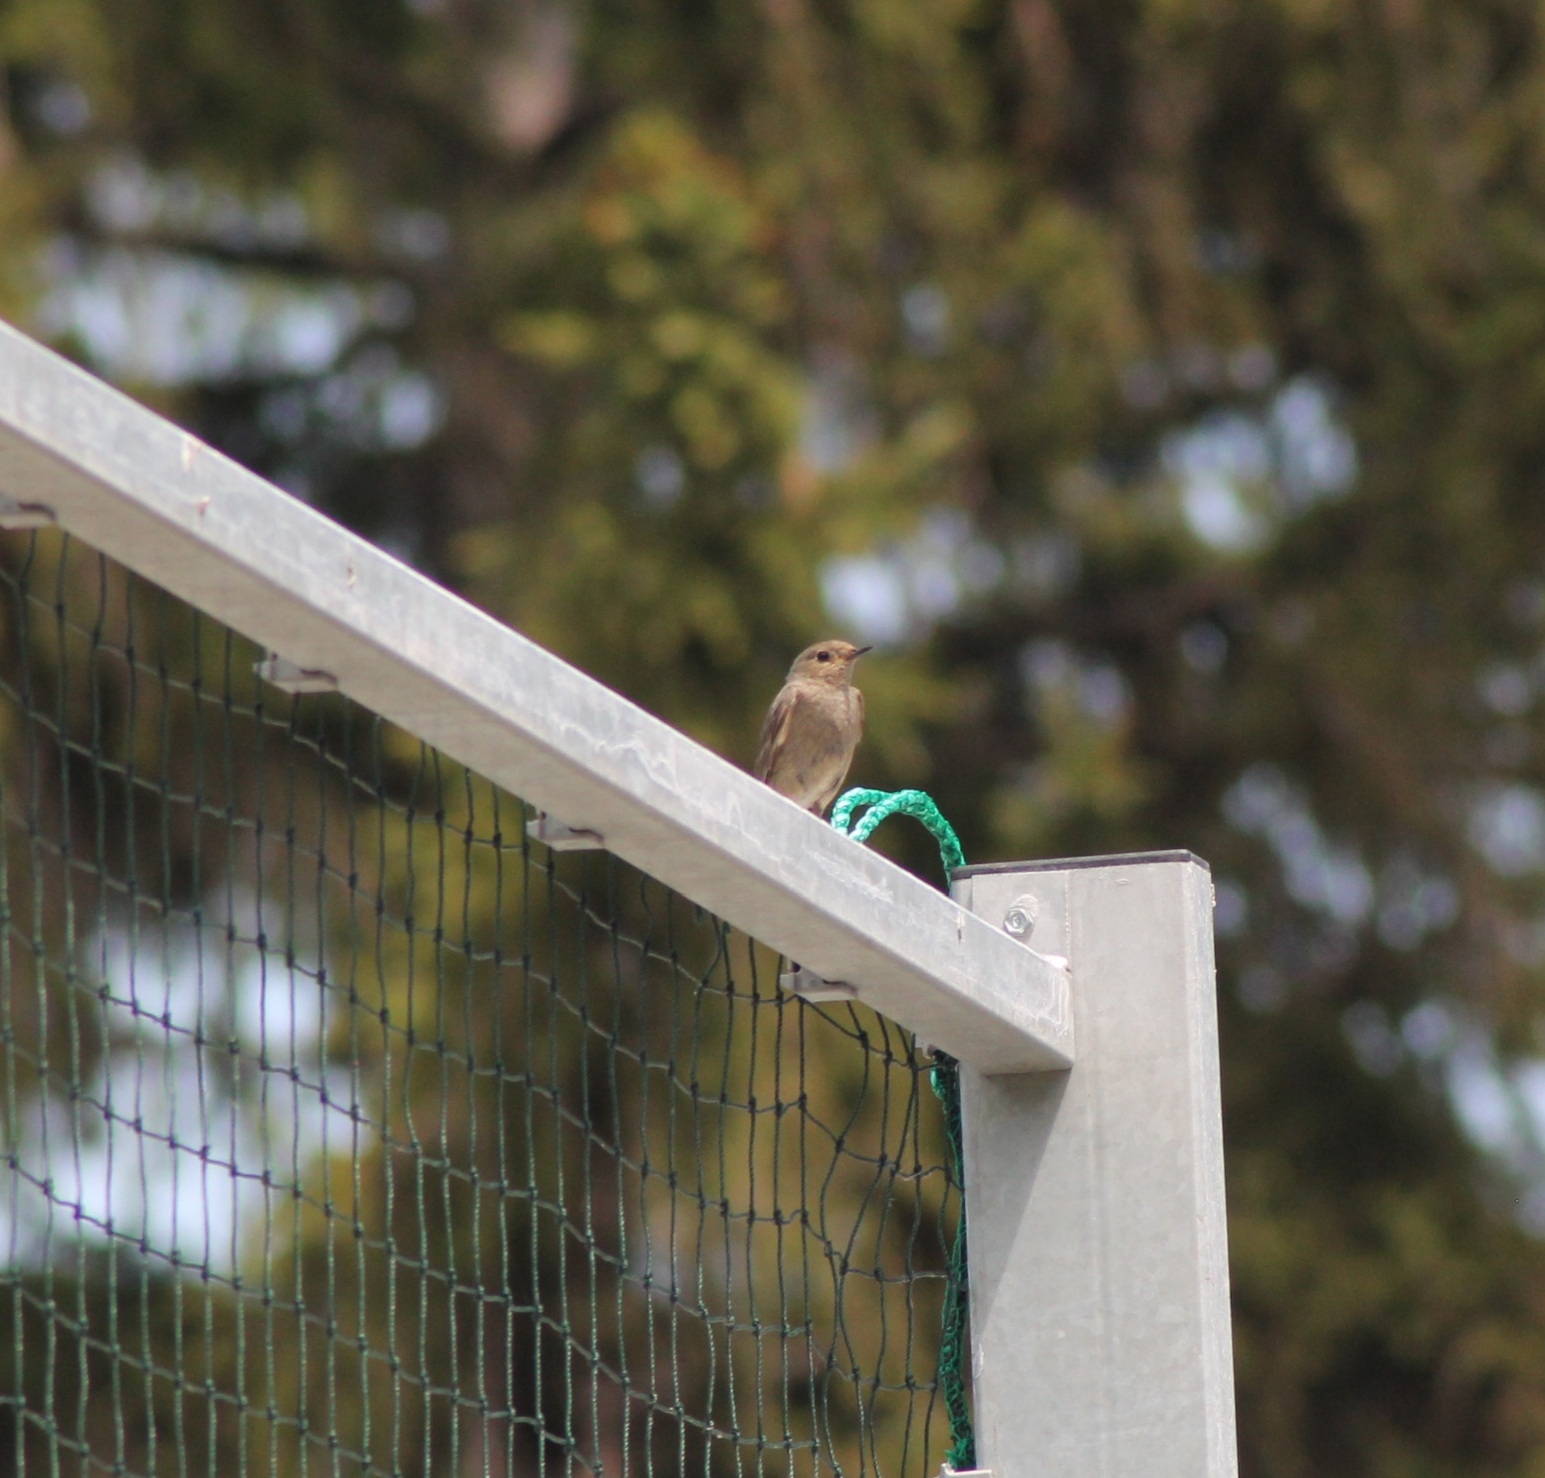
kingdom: Animalia
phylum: Chordata
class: Aves
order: Passeriformes
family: Muscicapidae
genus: Phoenicurus
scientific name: Phoenicurus ochruros
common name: Black redstart
